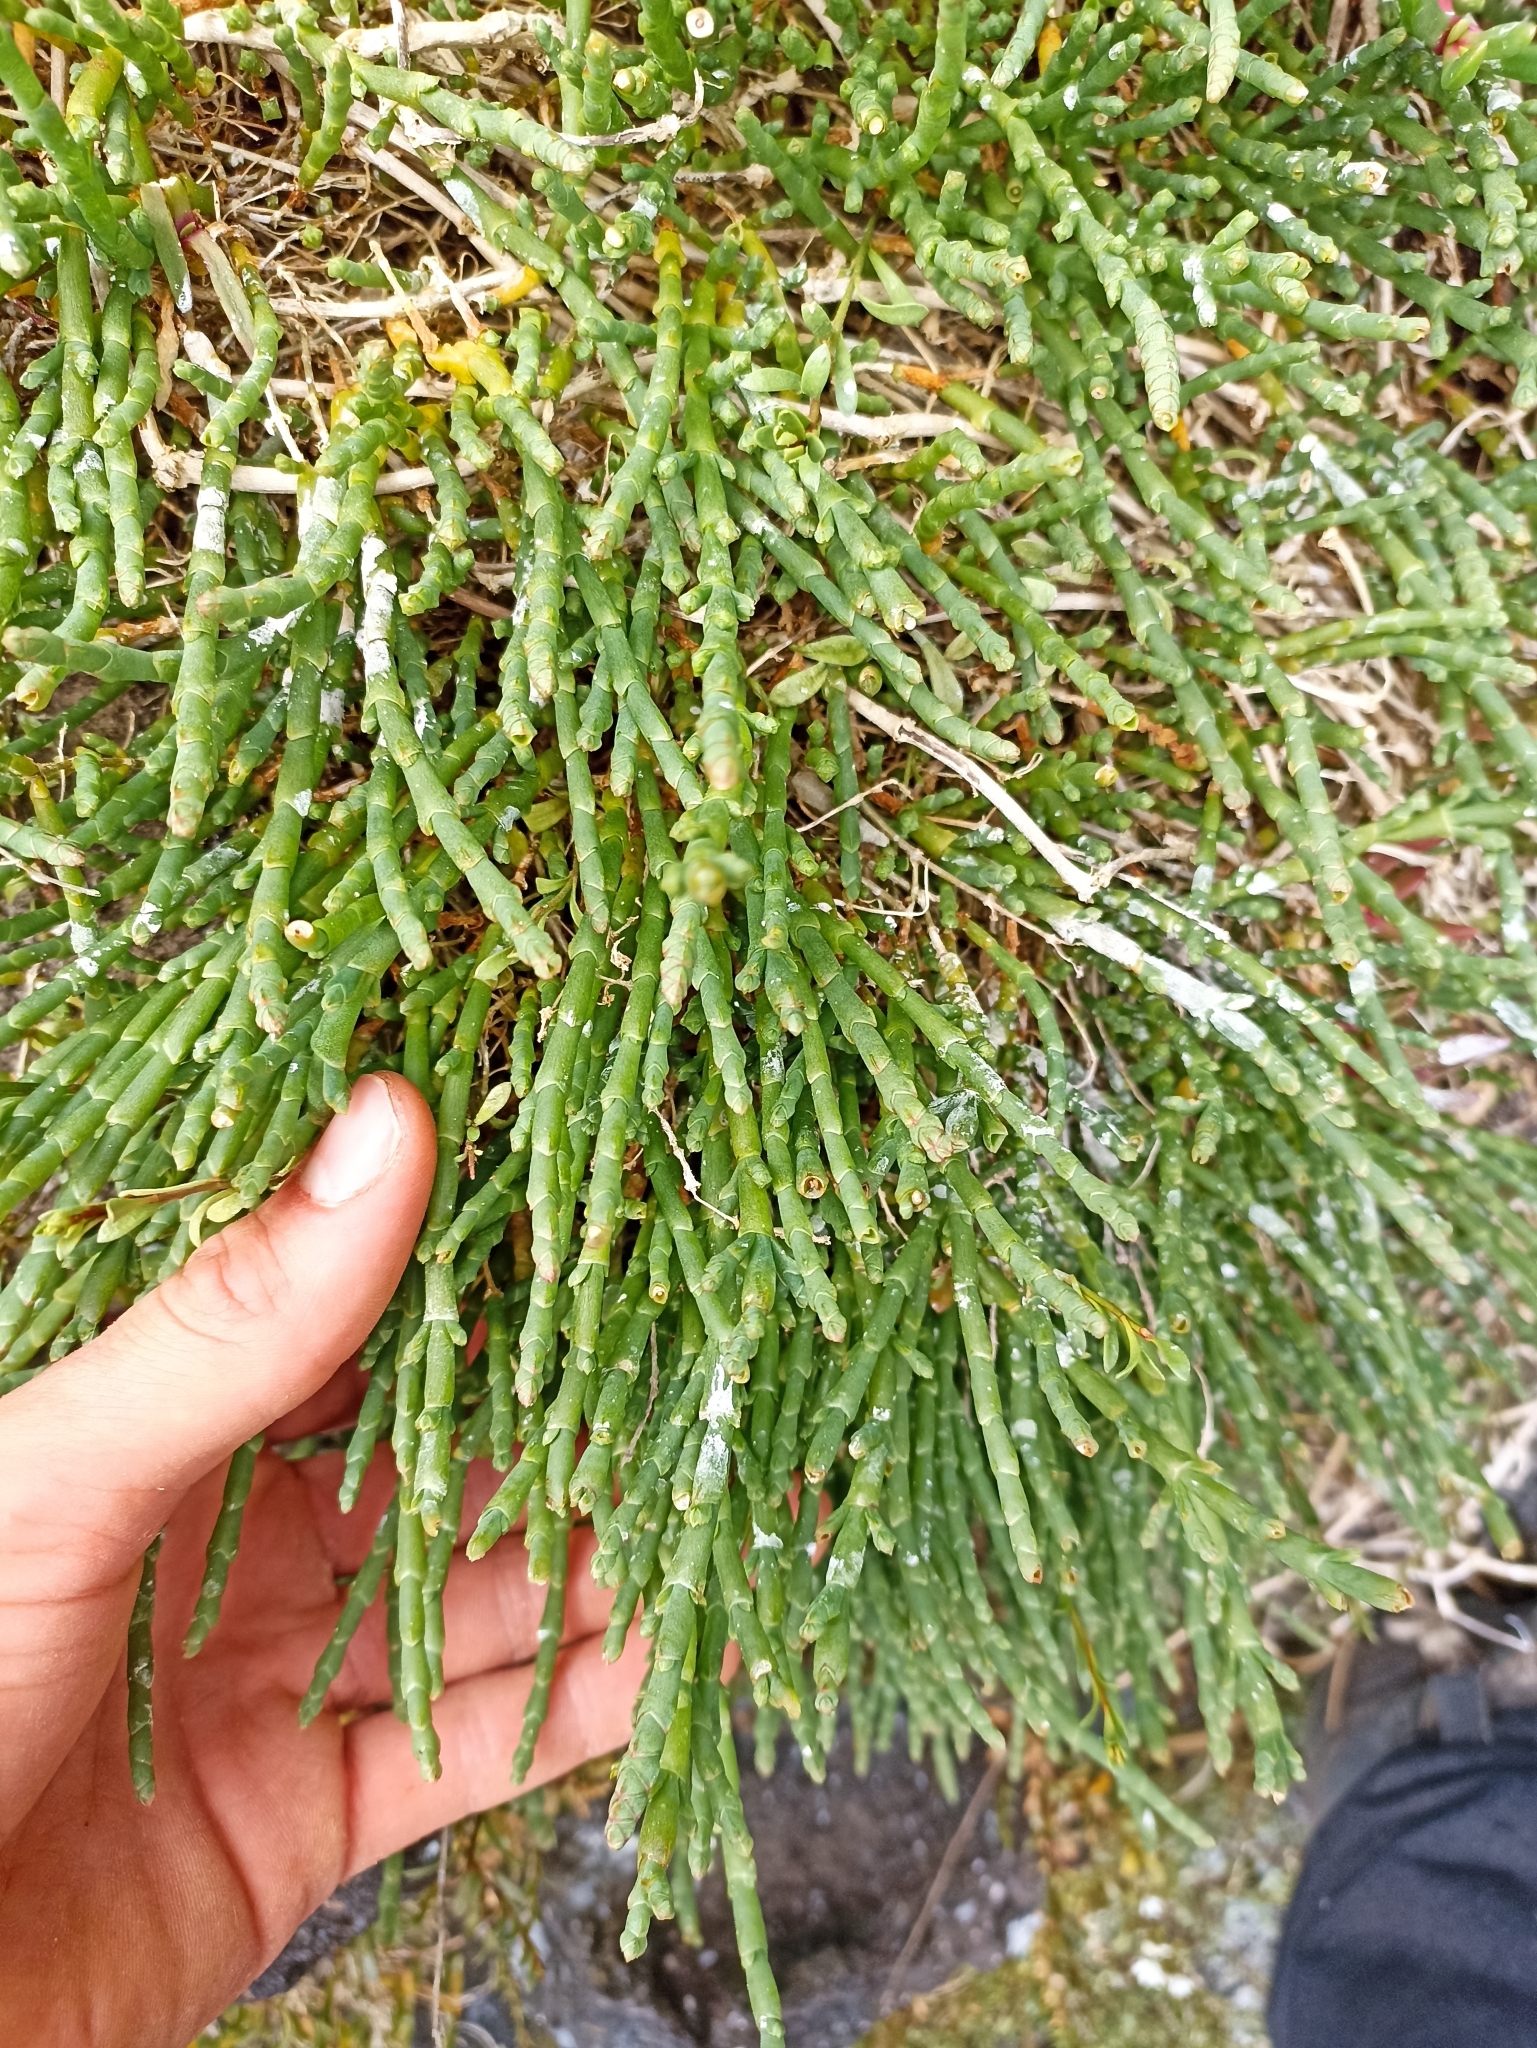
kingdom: Plantae
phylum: Tracheophyta
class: Magnoliopsida
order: Caryophyllales
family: Amaranthaceae
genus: Salicornia
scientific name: Salicornia quinqueflora
